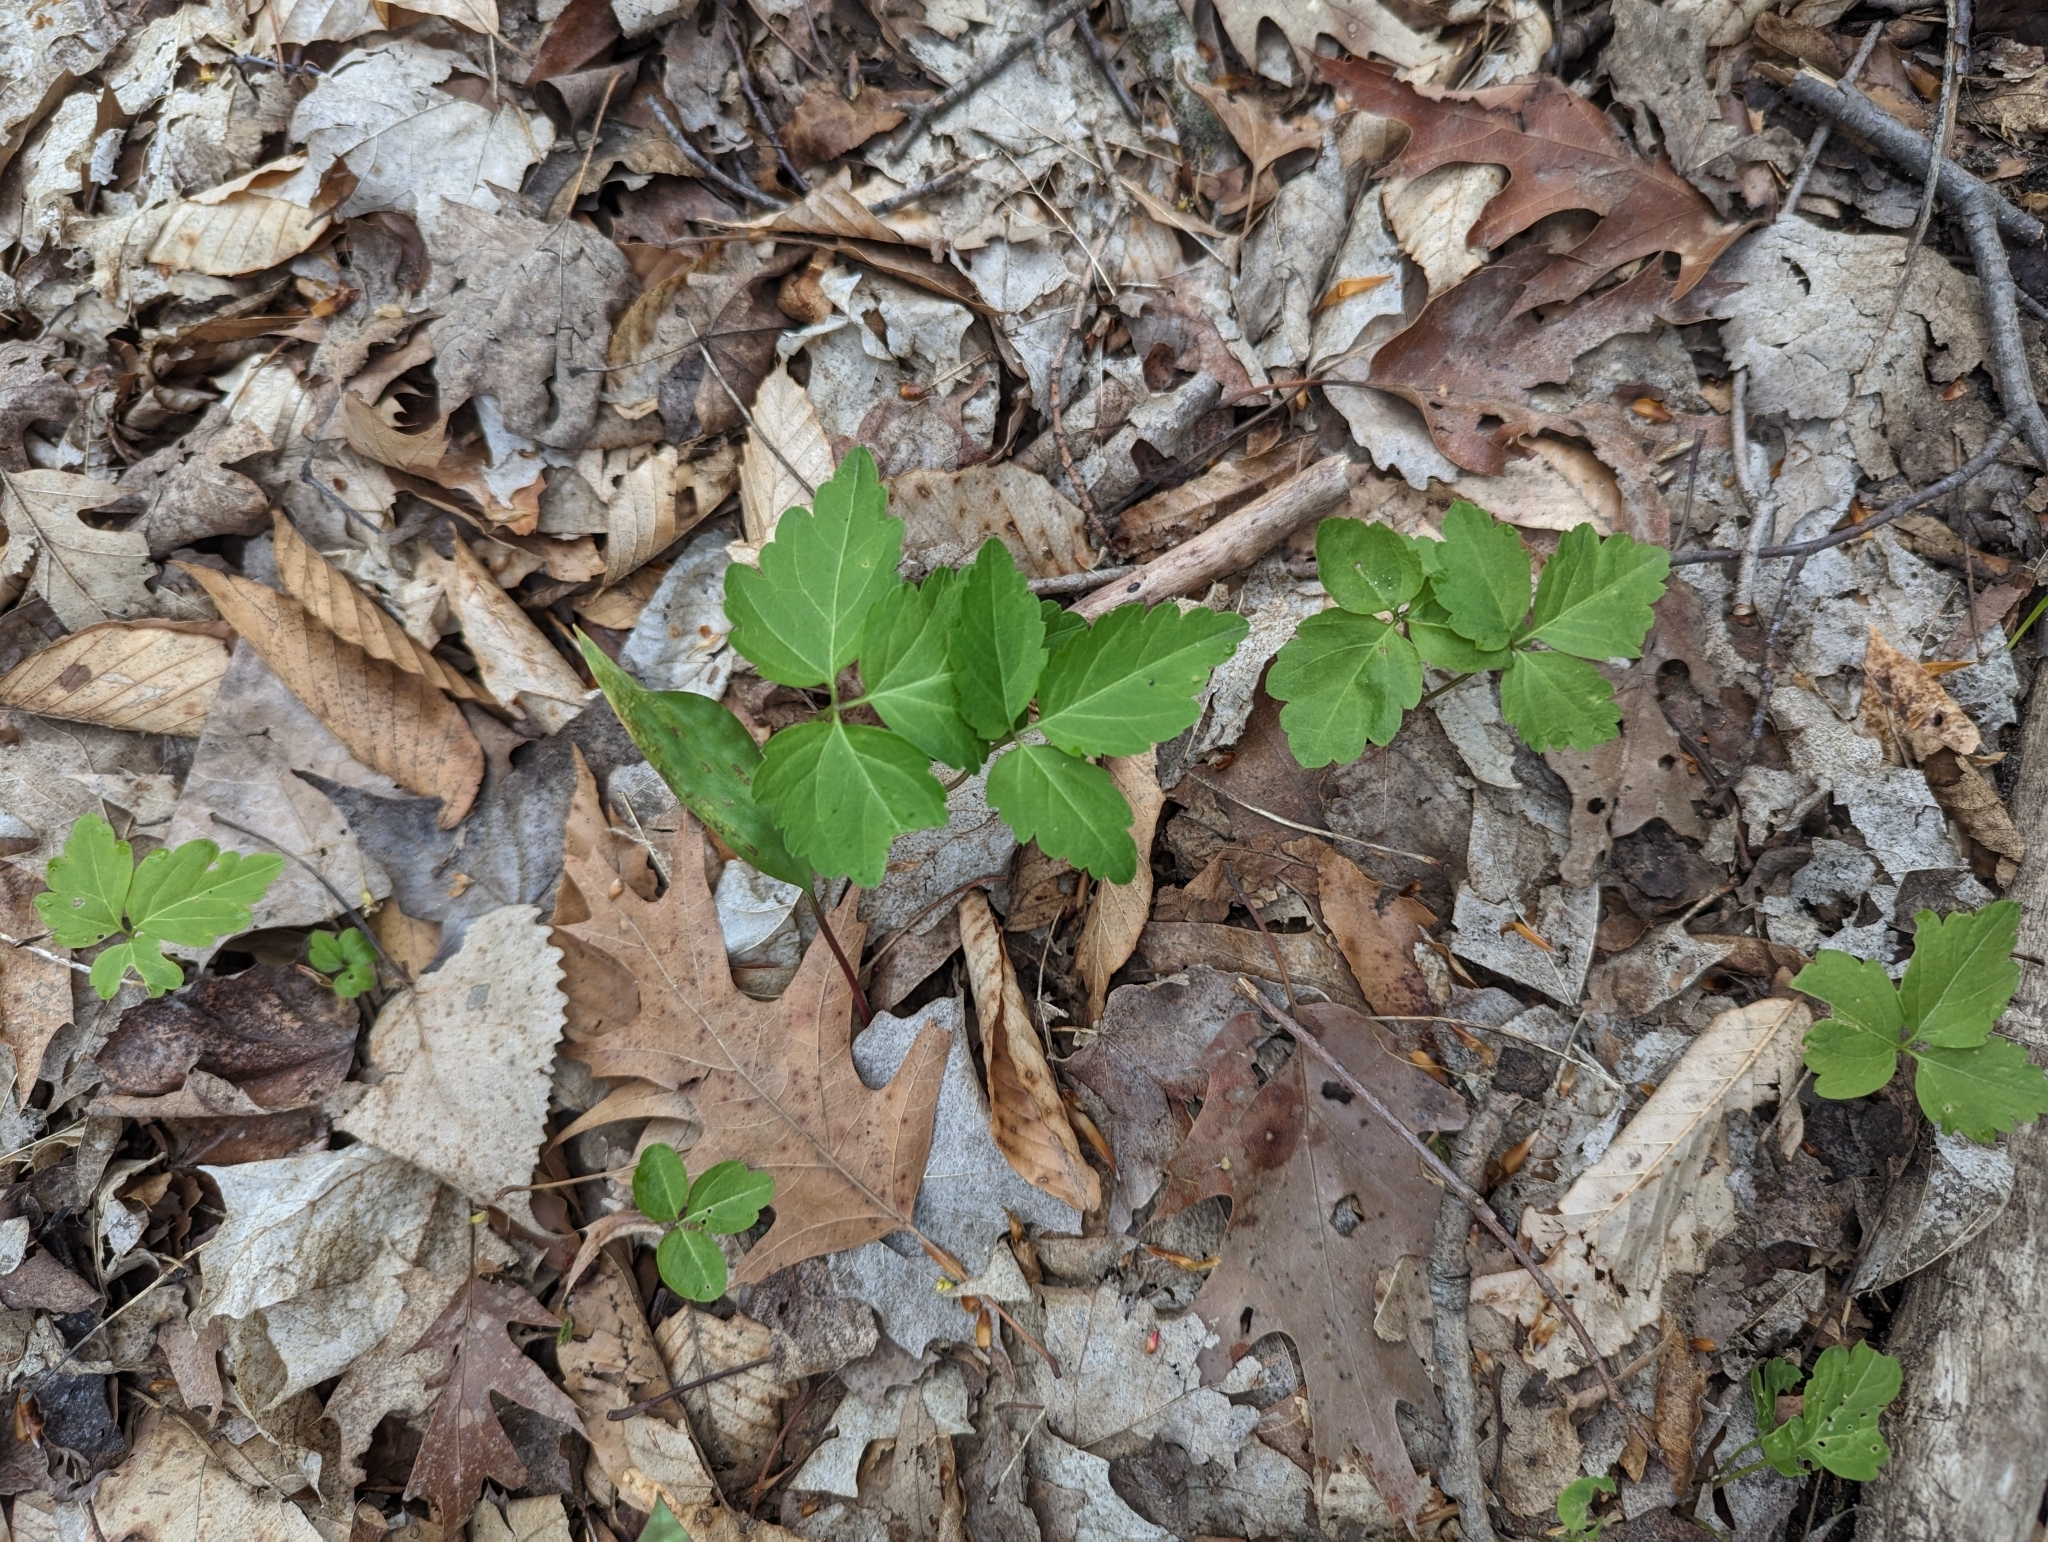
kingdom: Plantae
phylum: Tracheophyta
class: Magnoliopsida
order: Brassicales
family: Brassicaceae
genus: Cardamine
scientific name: Cardamine diphylla
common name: Broad-leaved toothwort
